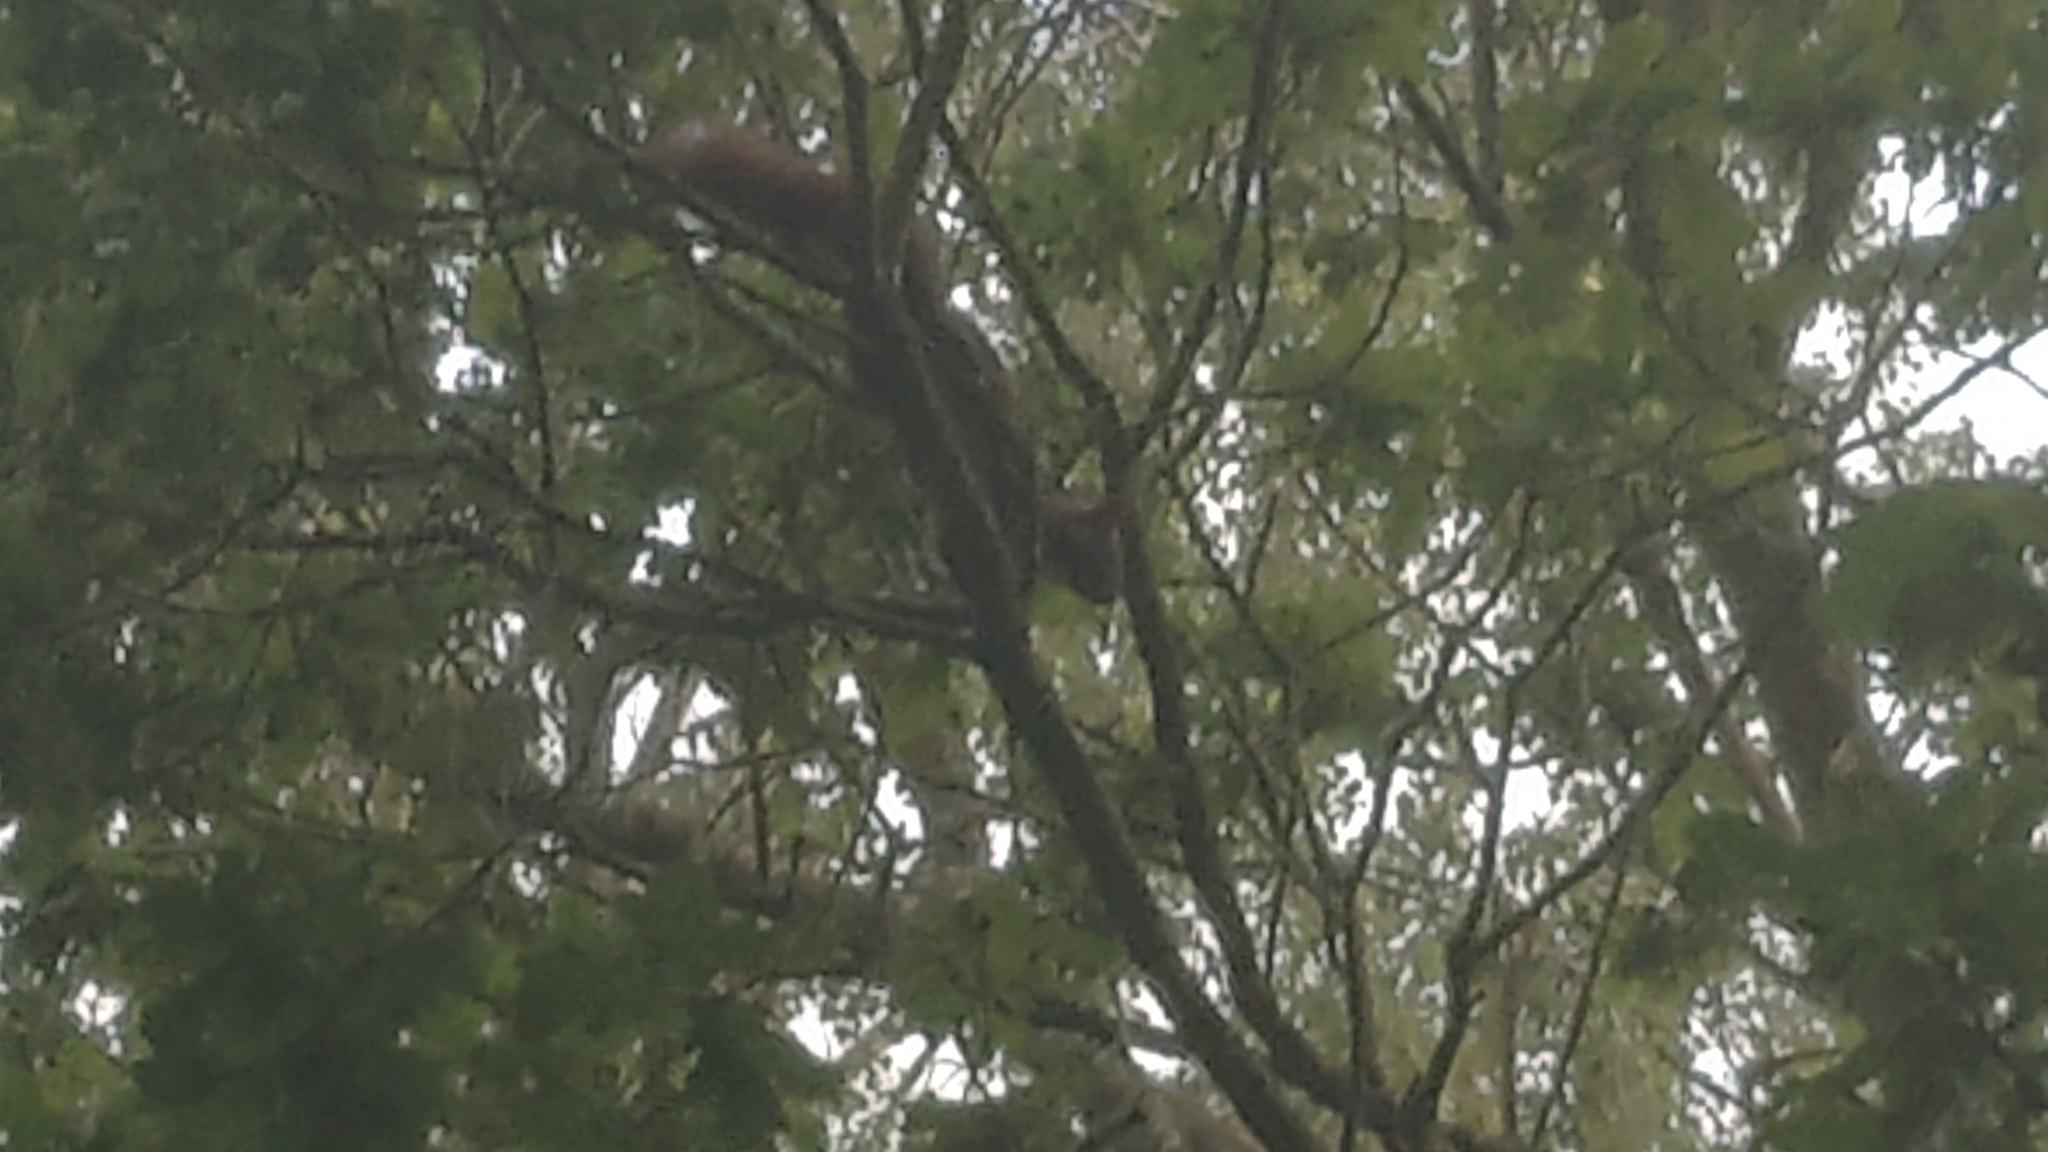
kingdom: Animalia
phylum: Chordata
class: Mammalia
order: Rodentia
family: Sciuridae
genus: Sciurus
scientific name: Sciurus vulgaris
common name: Eurasian red squirrel
